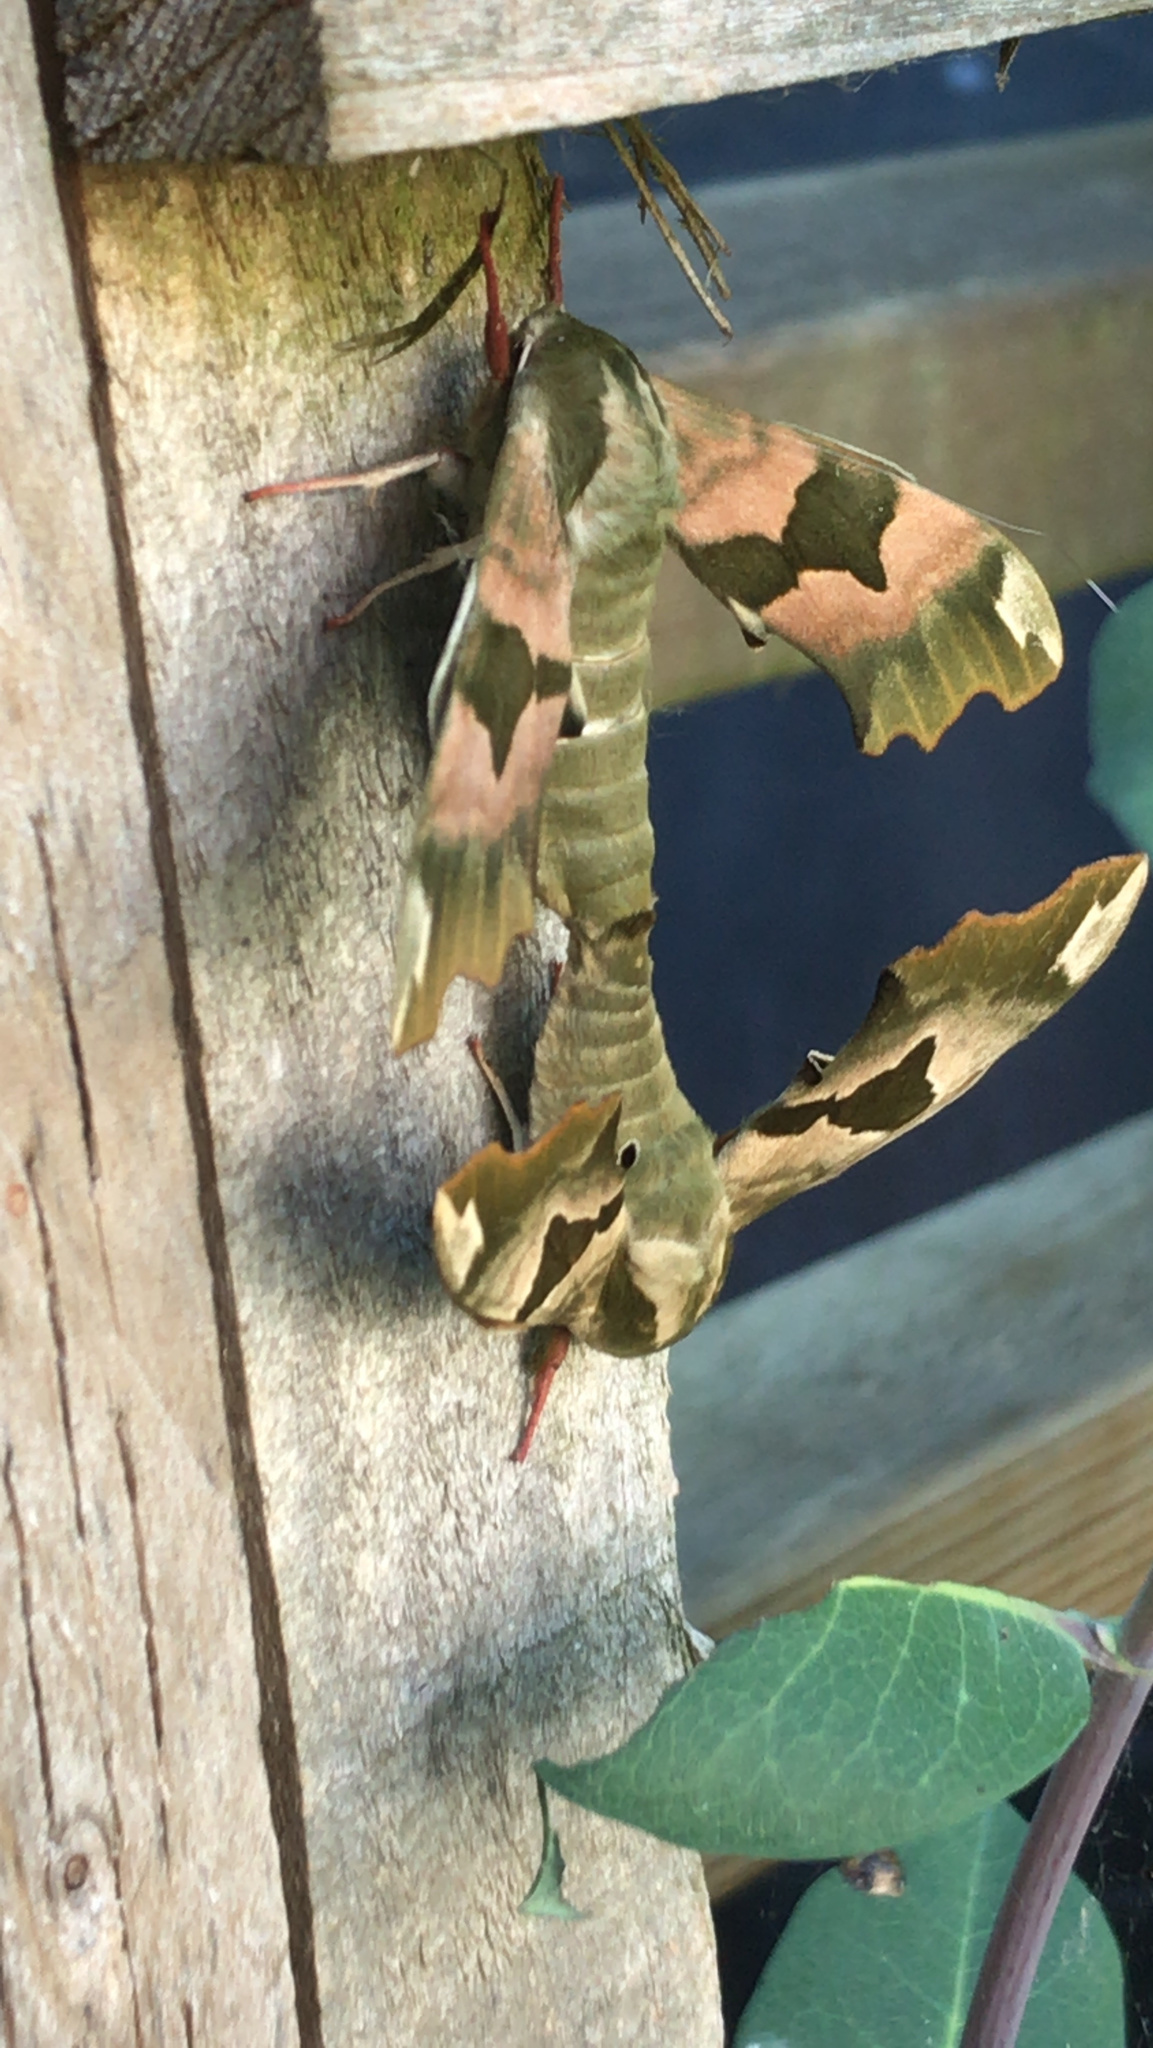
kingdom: Animalia
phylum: Arthropoda
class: Insecta
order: Lepidoptera
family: Sphingidae
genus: Mimas
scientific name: Mimas tiliae
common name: Lime hawk-moth
